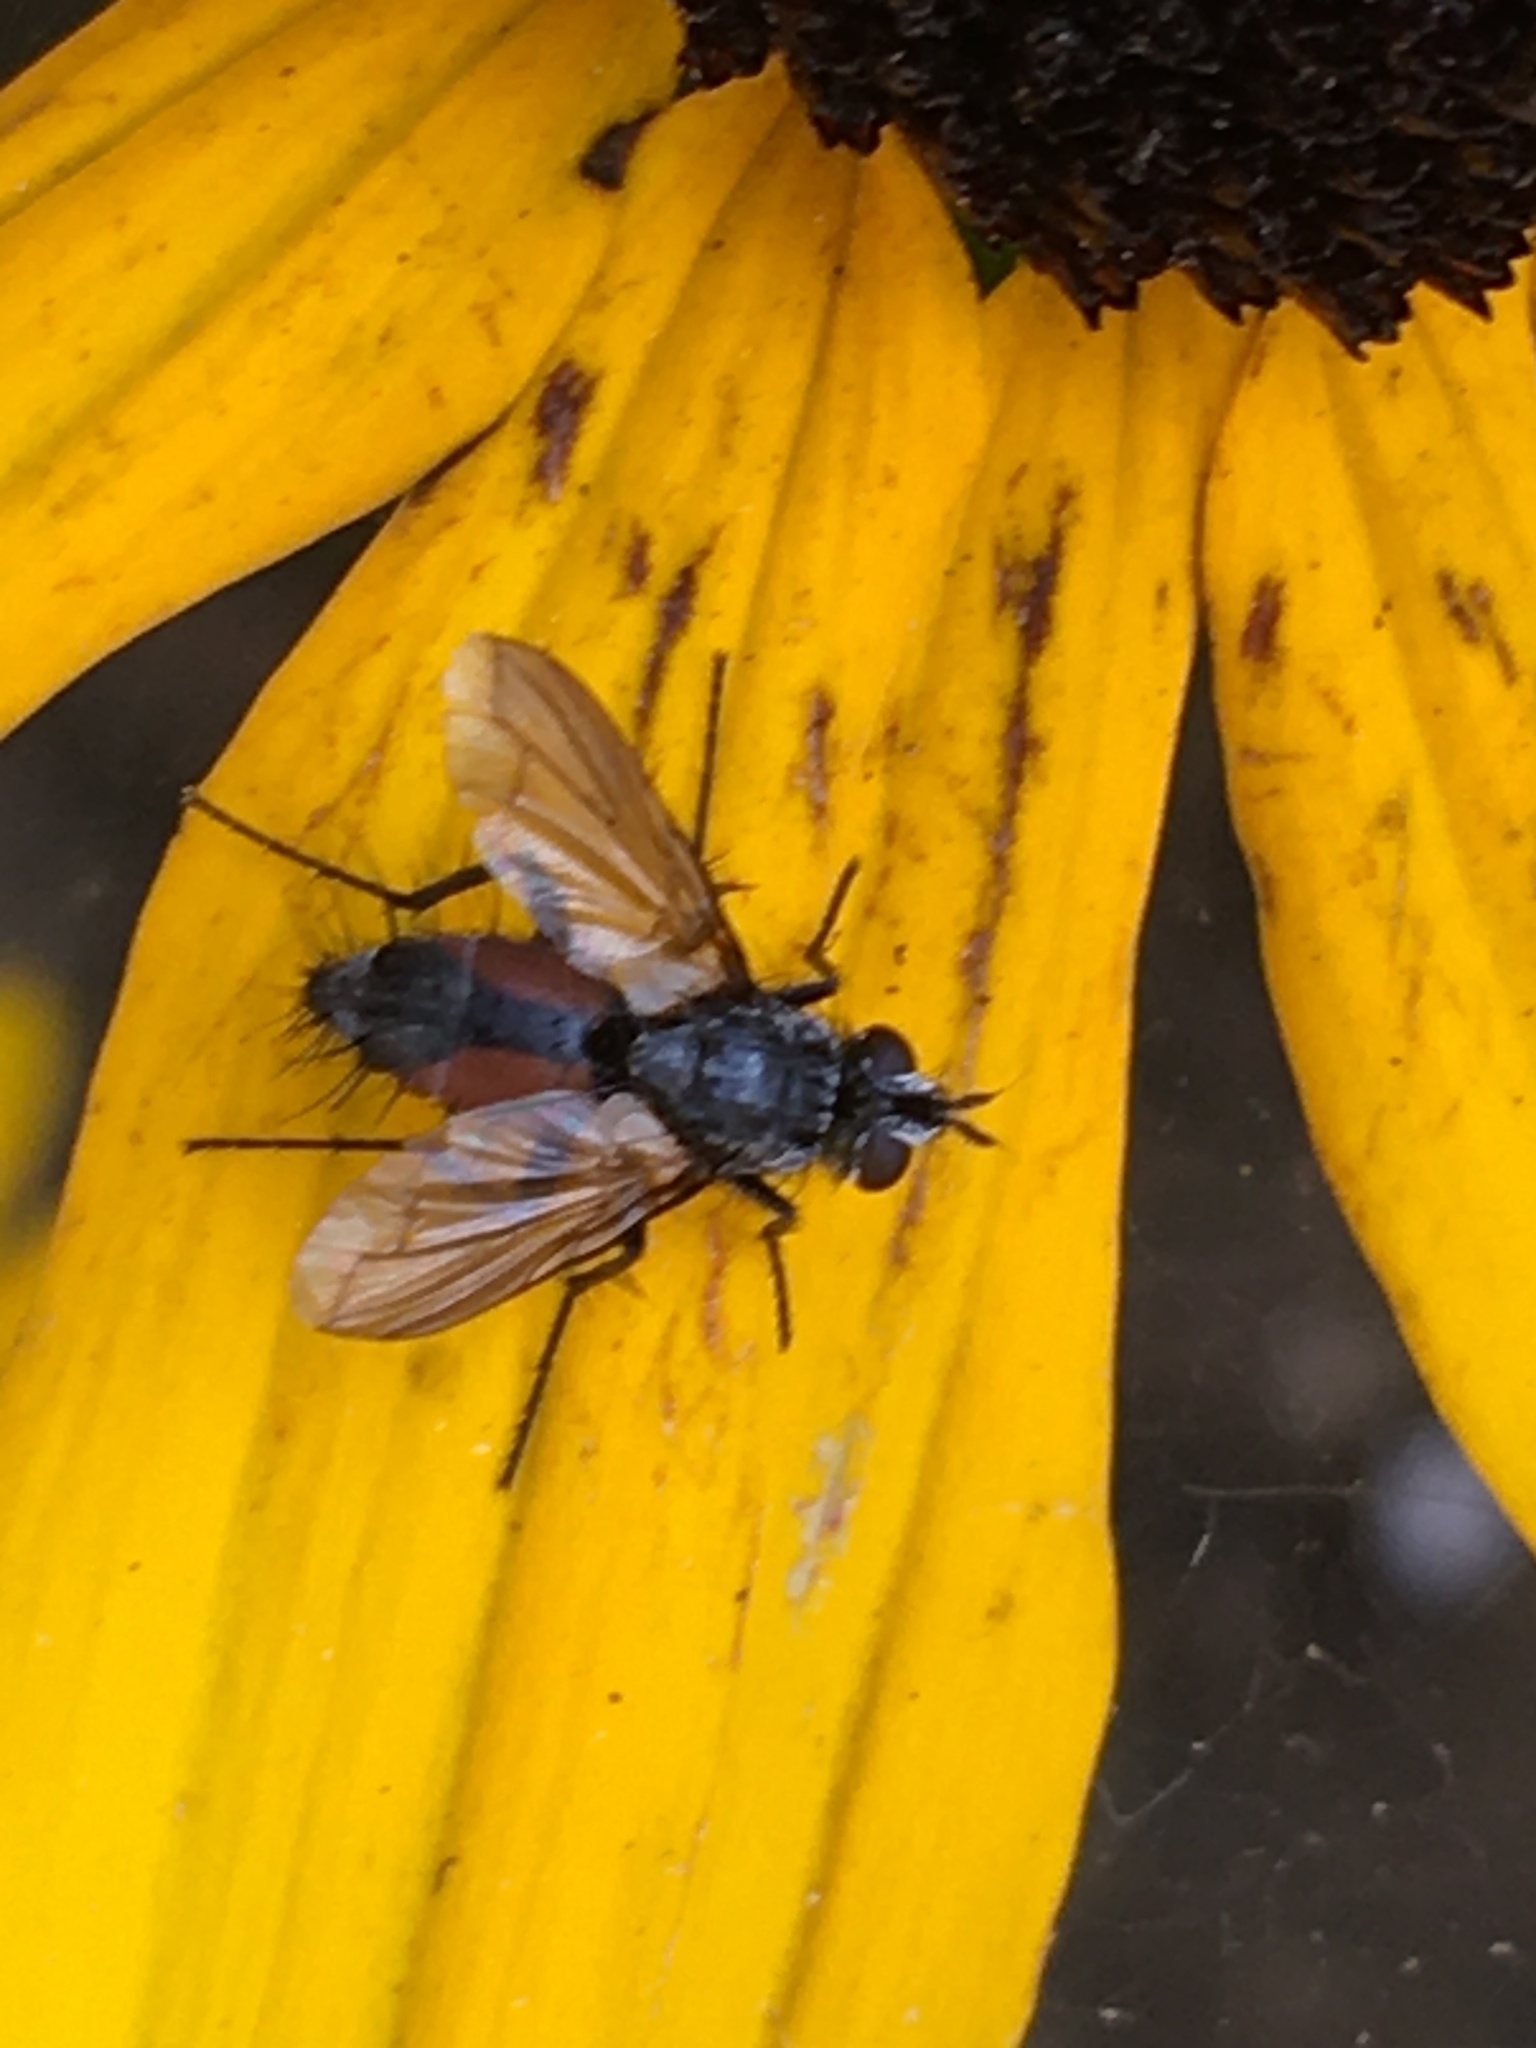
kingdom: Animalia
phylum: Arthropoda
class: Insecta
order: Diptera
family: Tachinidae
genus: Eriothrix
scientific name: Eriothrix rufomaculatus
